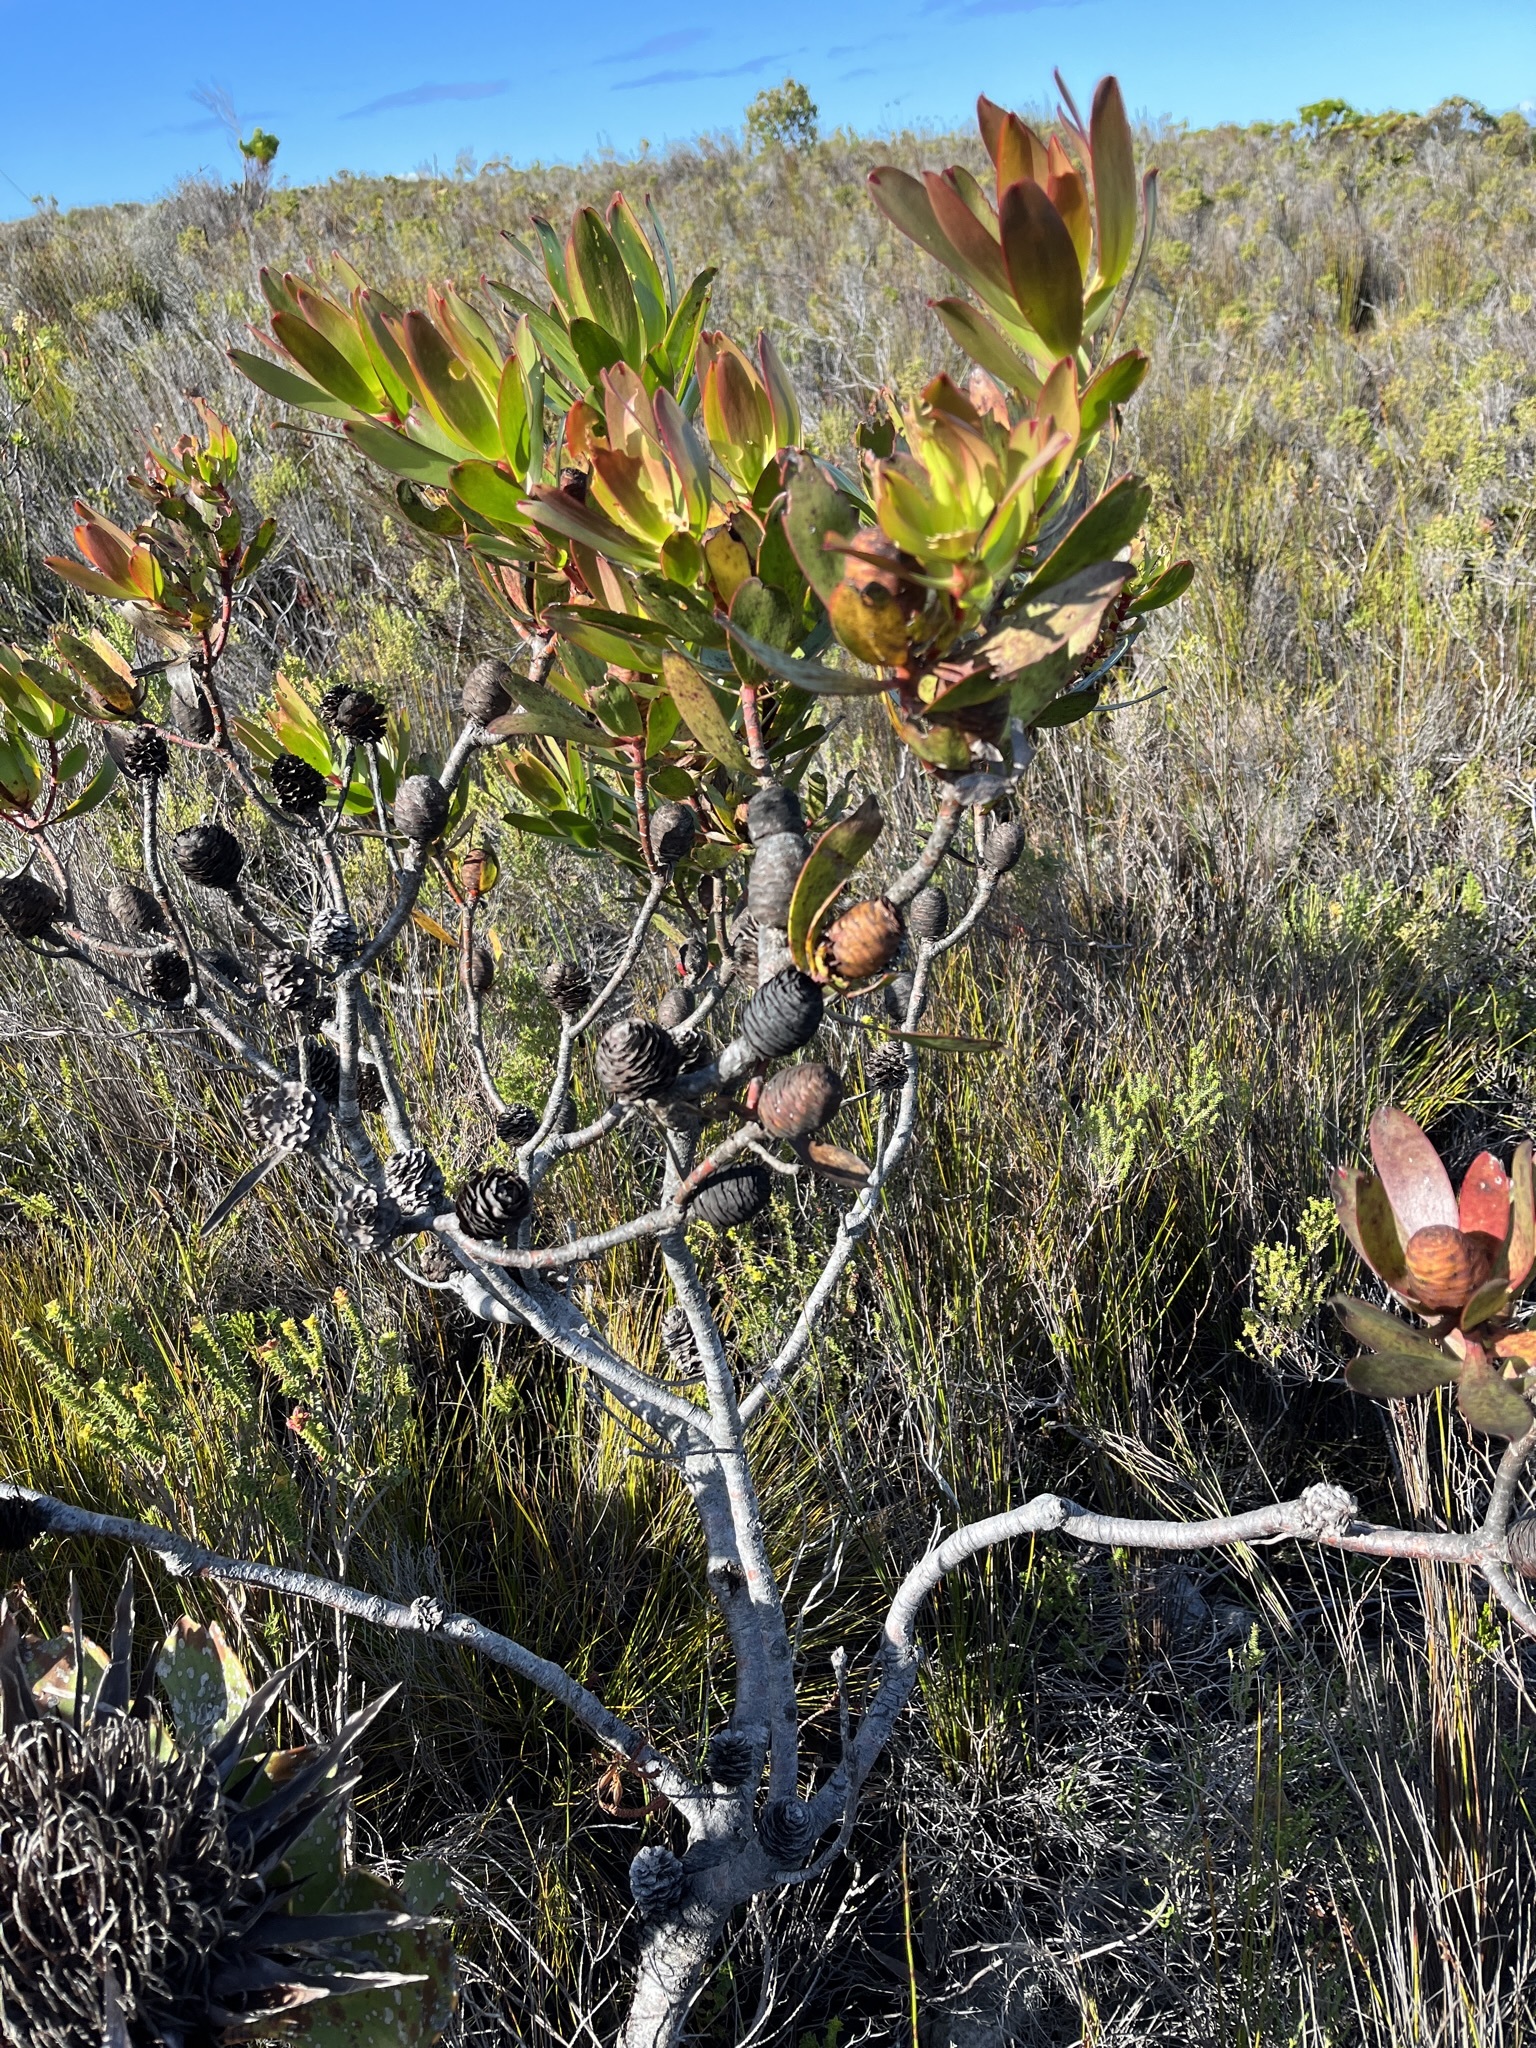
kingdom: Plantae
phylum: Tracheophyta
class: Magnoliopsida
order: Proteales
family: Proteaceae
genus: Leucadendron
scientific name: Leucadendron gandogeri
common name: Broad-leaf conebush
